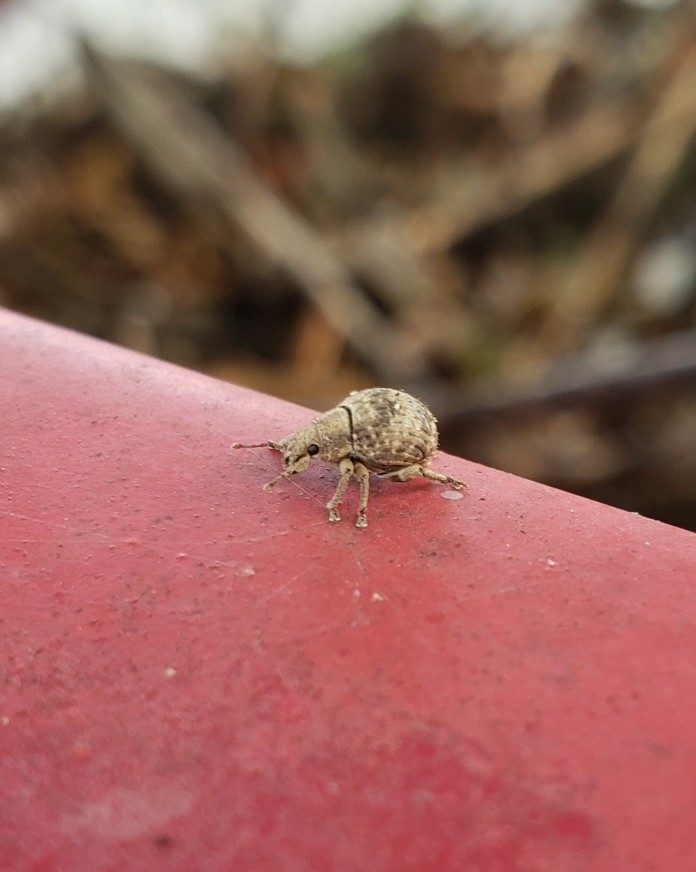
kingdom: Animalia
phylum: Arthropoda
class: Insecta
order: Coleoptera
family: Curculionidae
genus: Pseudocneorhinus
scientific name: Pseudocneorhinus bifasciatus
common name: Two-banded japanese weevil
